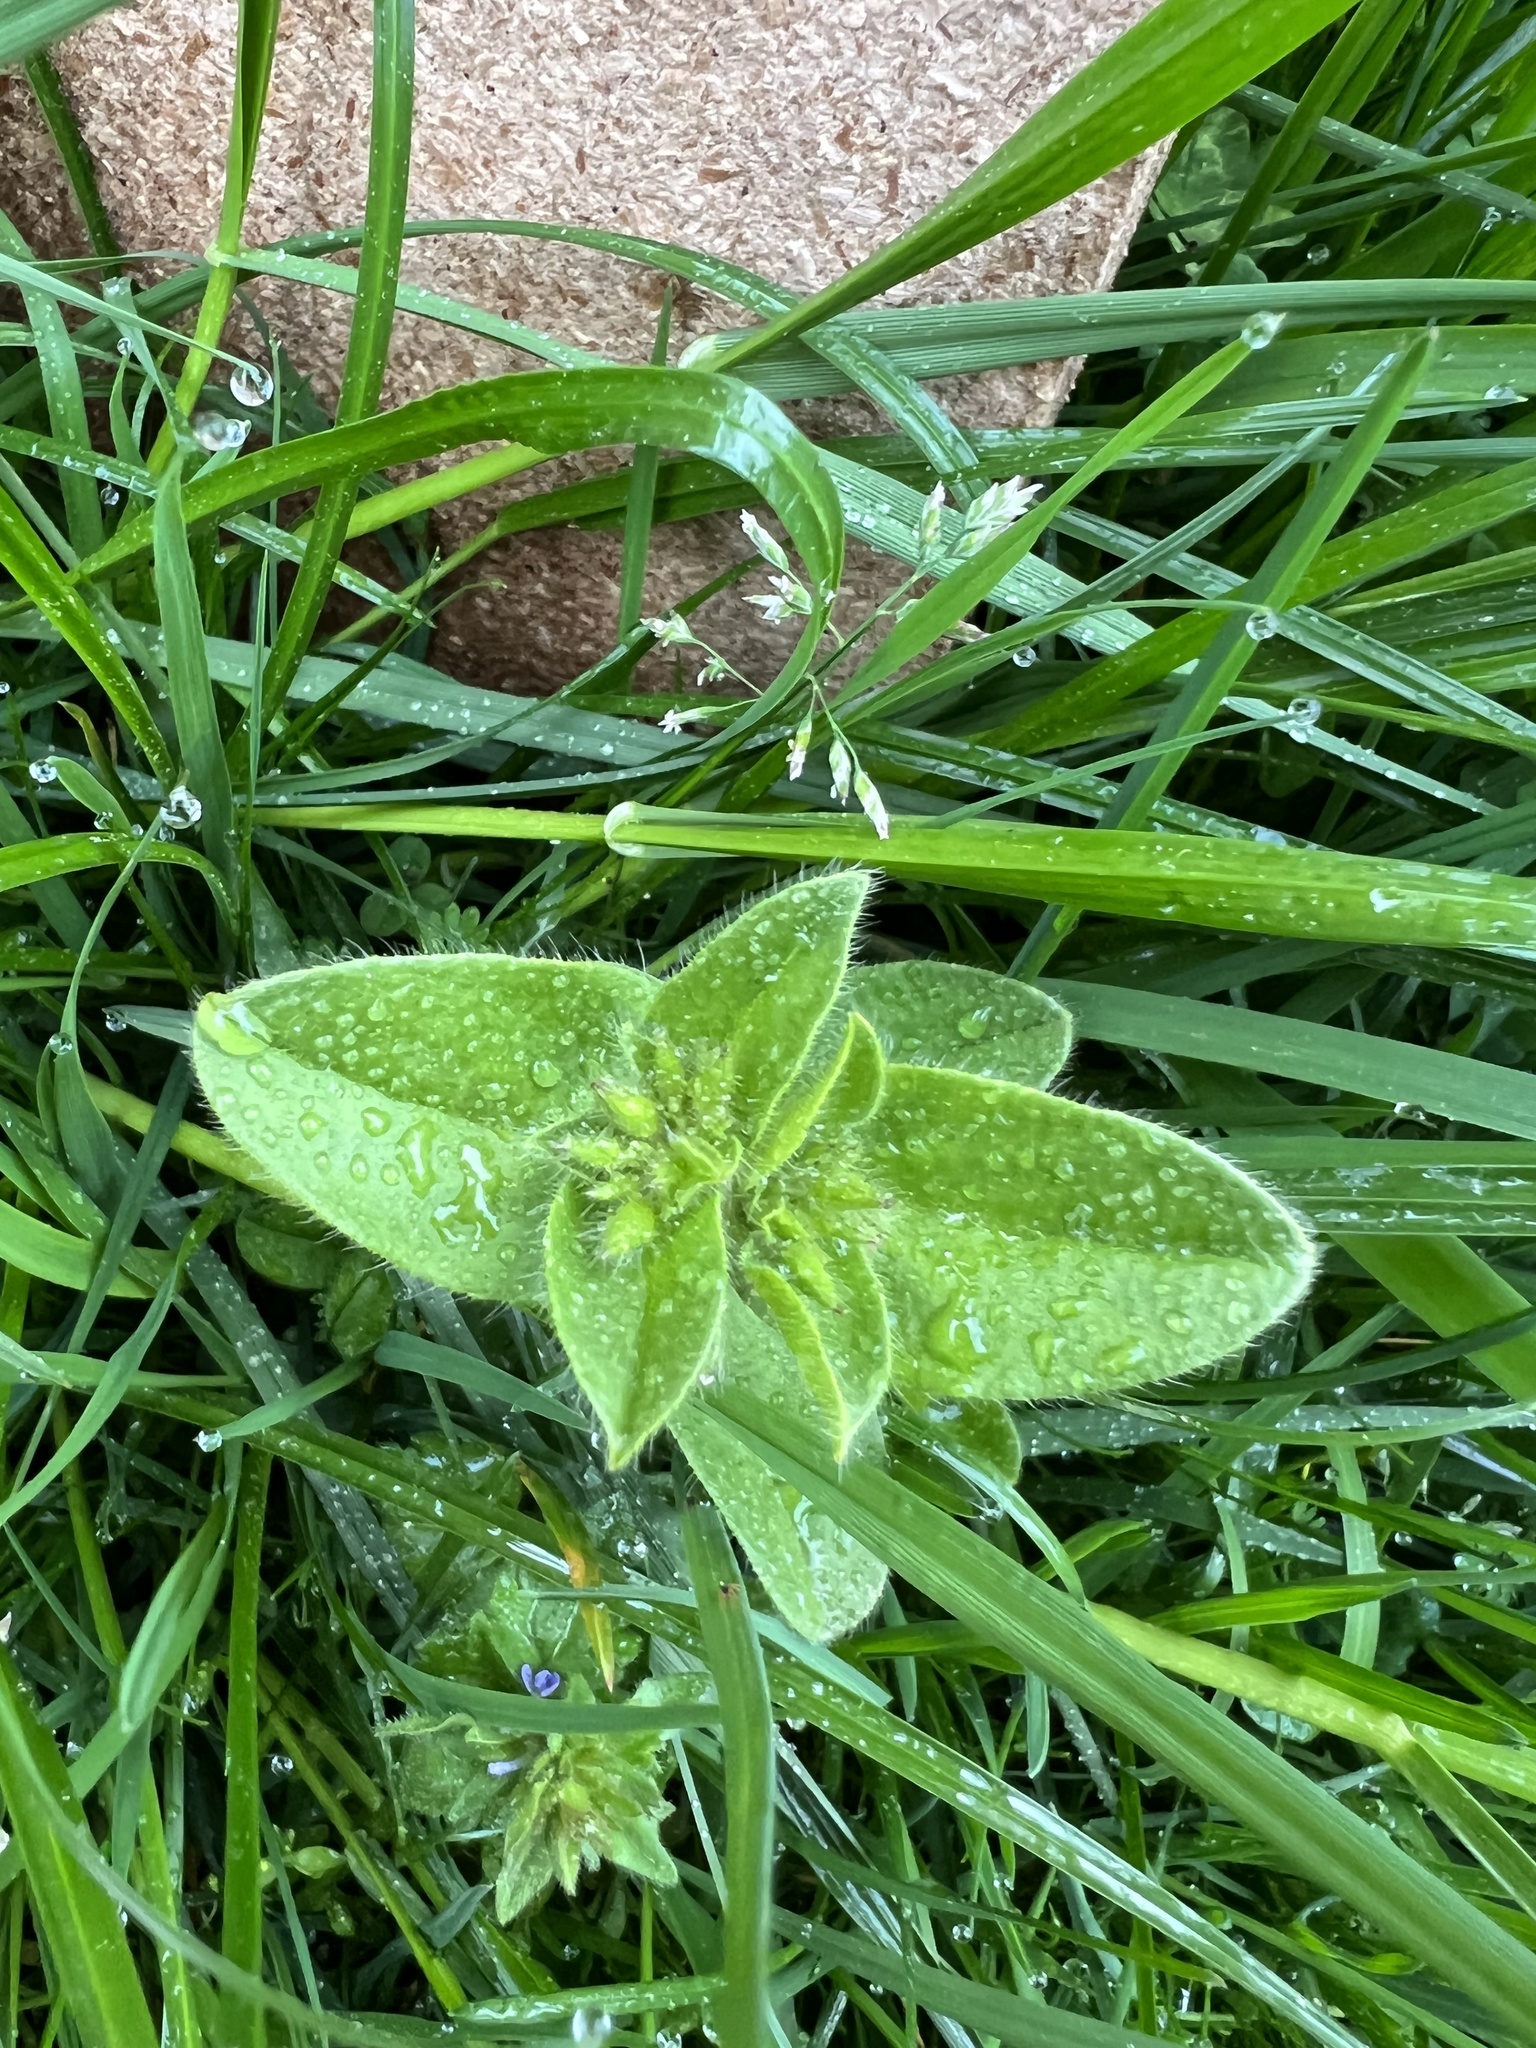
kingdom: Plantae
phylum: Tracheophyta
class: Magnoliopsida
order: Caryophyllales
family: Caryophyllaceae
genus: Cerastium
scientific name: Cerastium glomeratum
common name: Sticky chickweed
